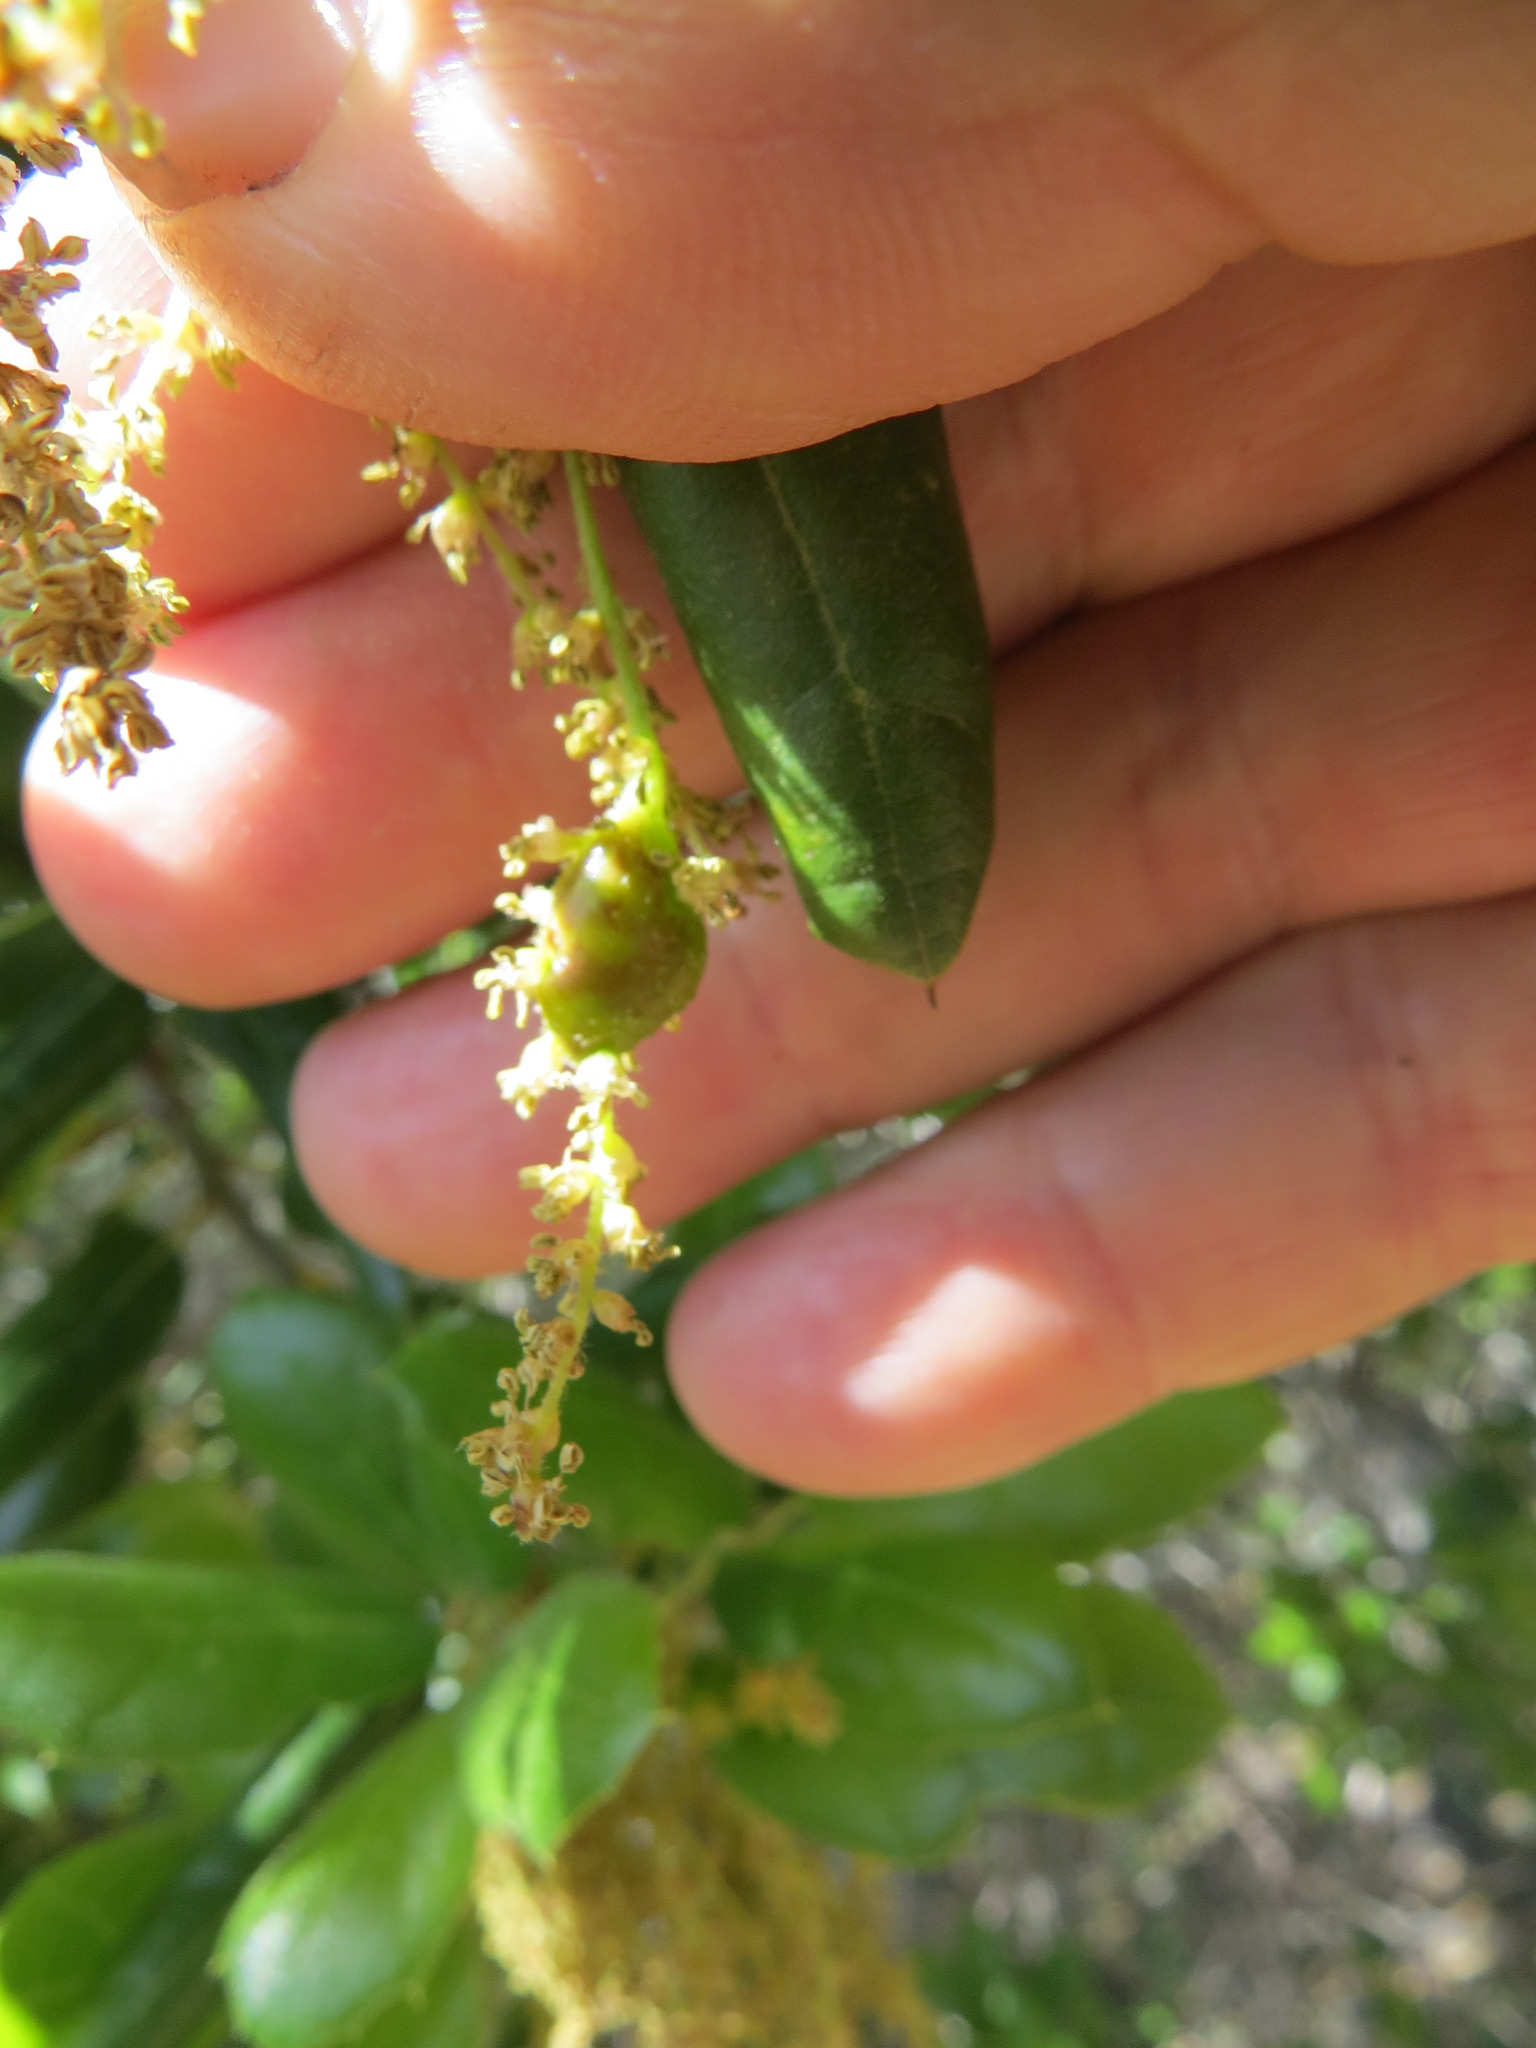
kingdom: Animalia
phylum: Arthropoda
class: Insecta
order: Hymenoptera
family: Cynipidae
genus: Callirhytis
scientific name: Callirhytis
